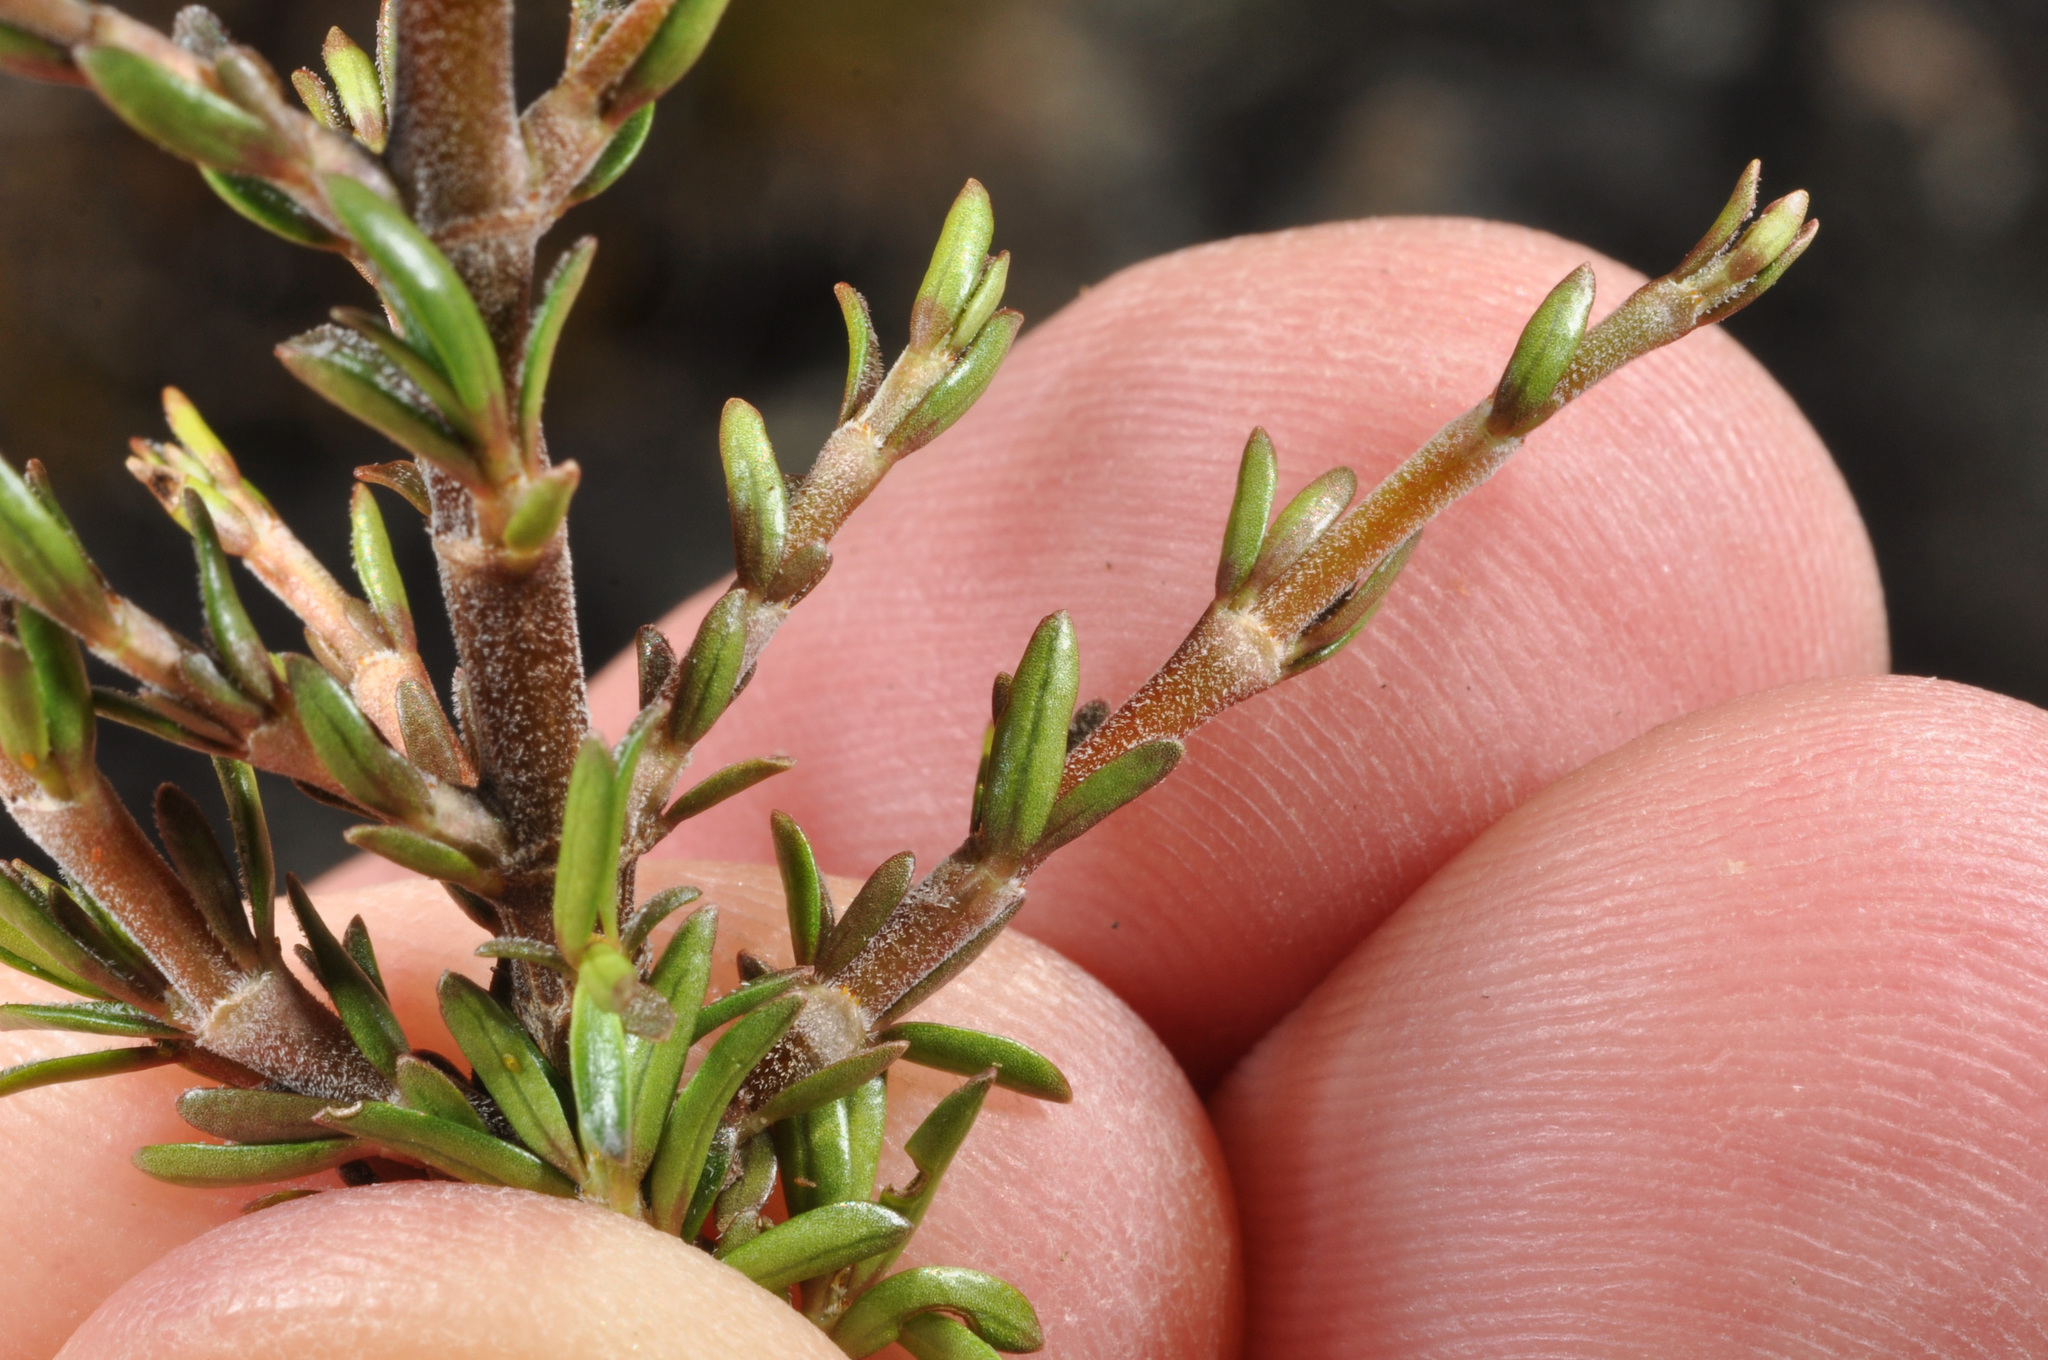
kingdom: Plantae
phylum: Tracheophyta
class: Magnoliopsida
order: Gentianales
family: Rubiaceae
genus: Coprosma
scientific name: Coprosma cheesemanii
